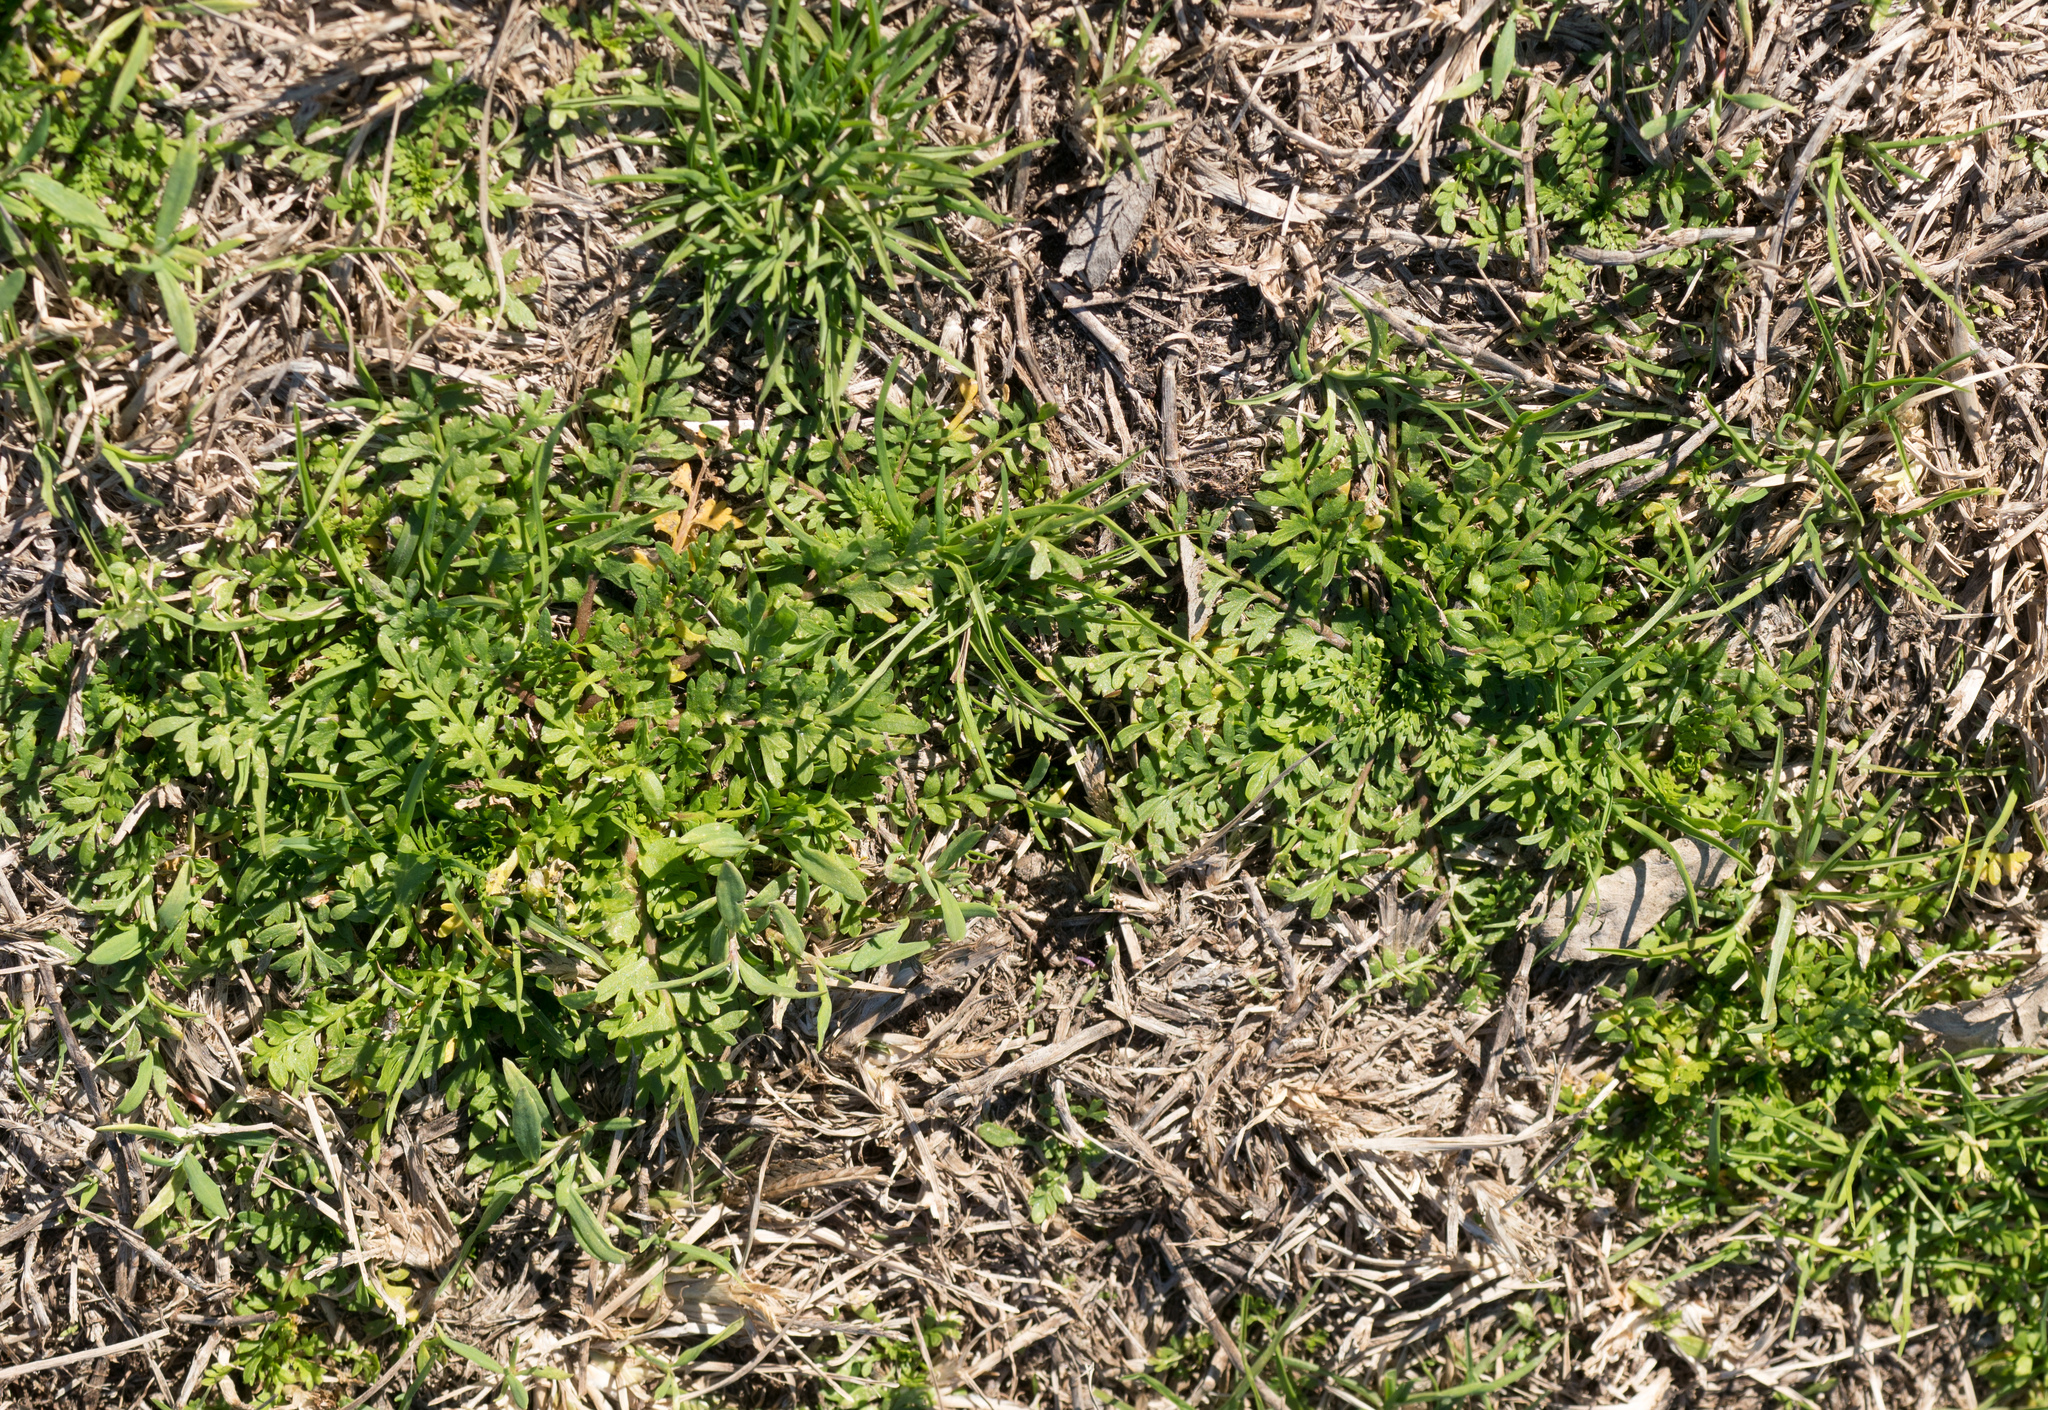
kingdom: Plantae
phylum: Tracheophyta
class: Magnoliopsida
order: Brassicales
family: Brassicaceae
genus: Lepidium
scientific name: Lepidium didymum
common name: Lesser swinecress
